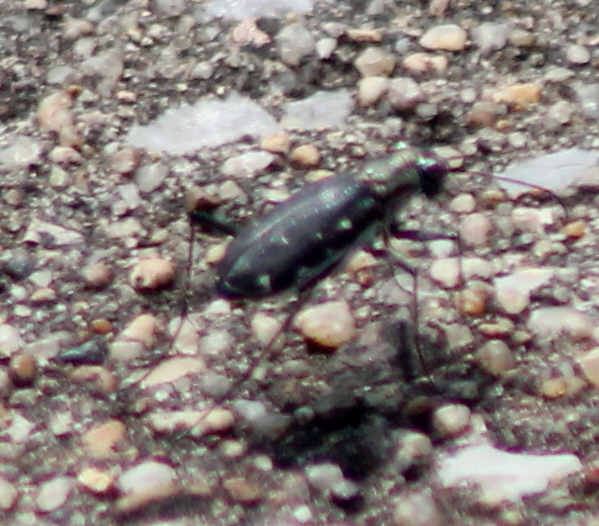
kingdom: Animalia
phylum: Arthropoda
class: Insecta
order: Coleoptera
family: Carabidae
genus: Cicindela
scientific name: Cicindela punctulata
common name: Punctured tiger beetle
